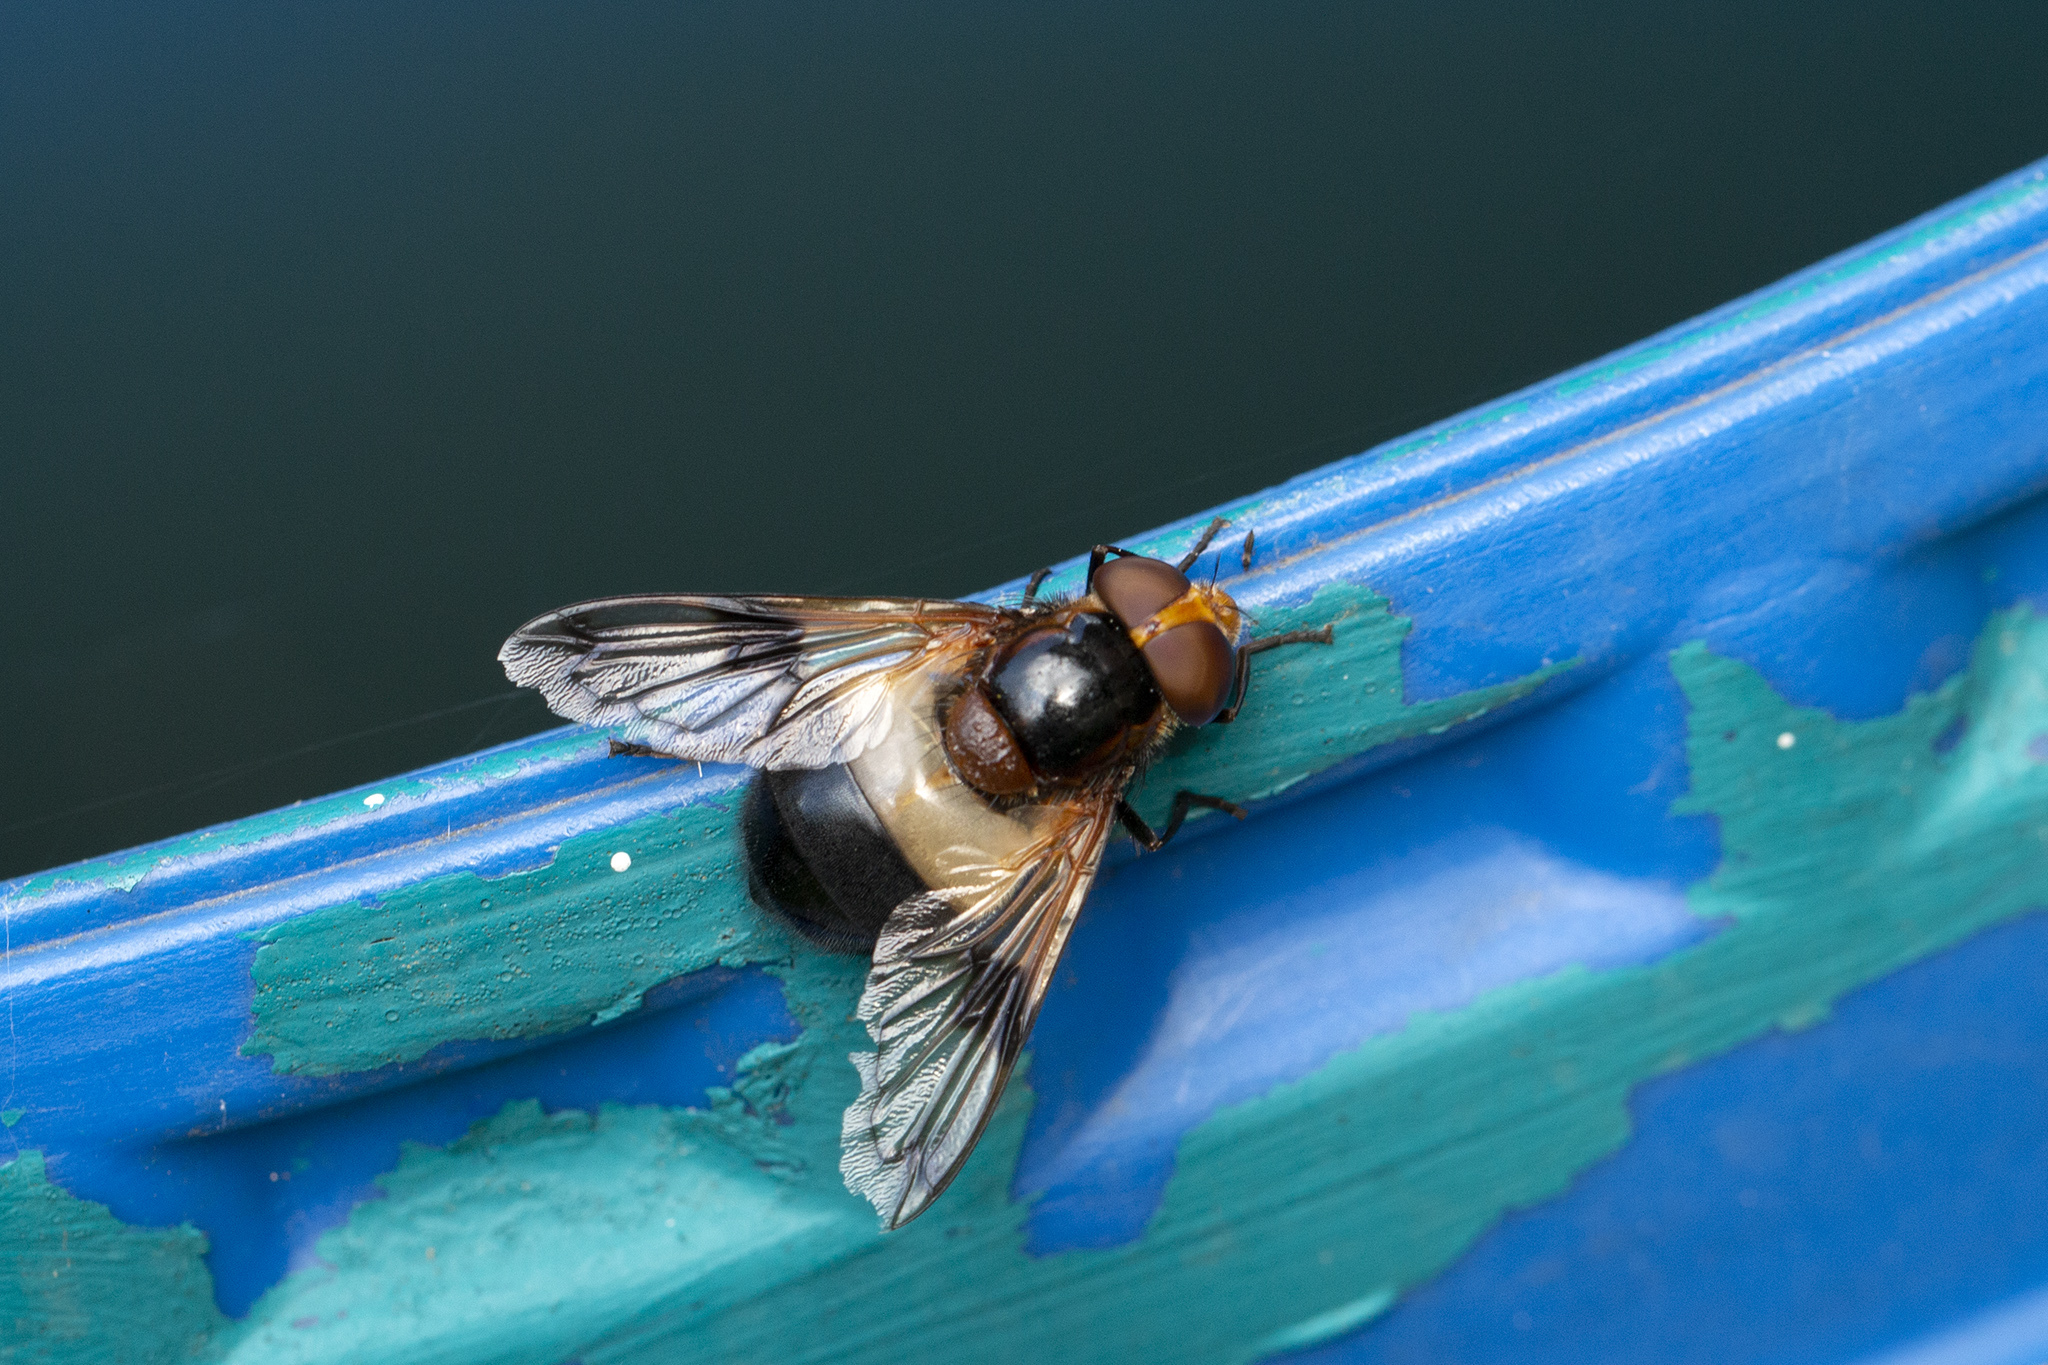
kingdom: Animalia
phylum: Arthropoda
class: Insecta
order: Diptera
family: Syrphidae
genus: Volucella
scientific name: Volucella pellucens
